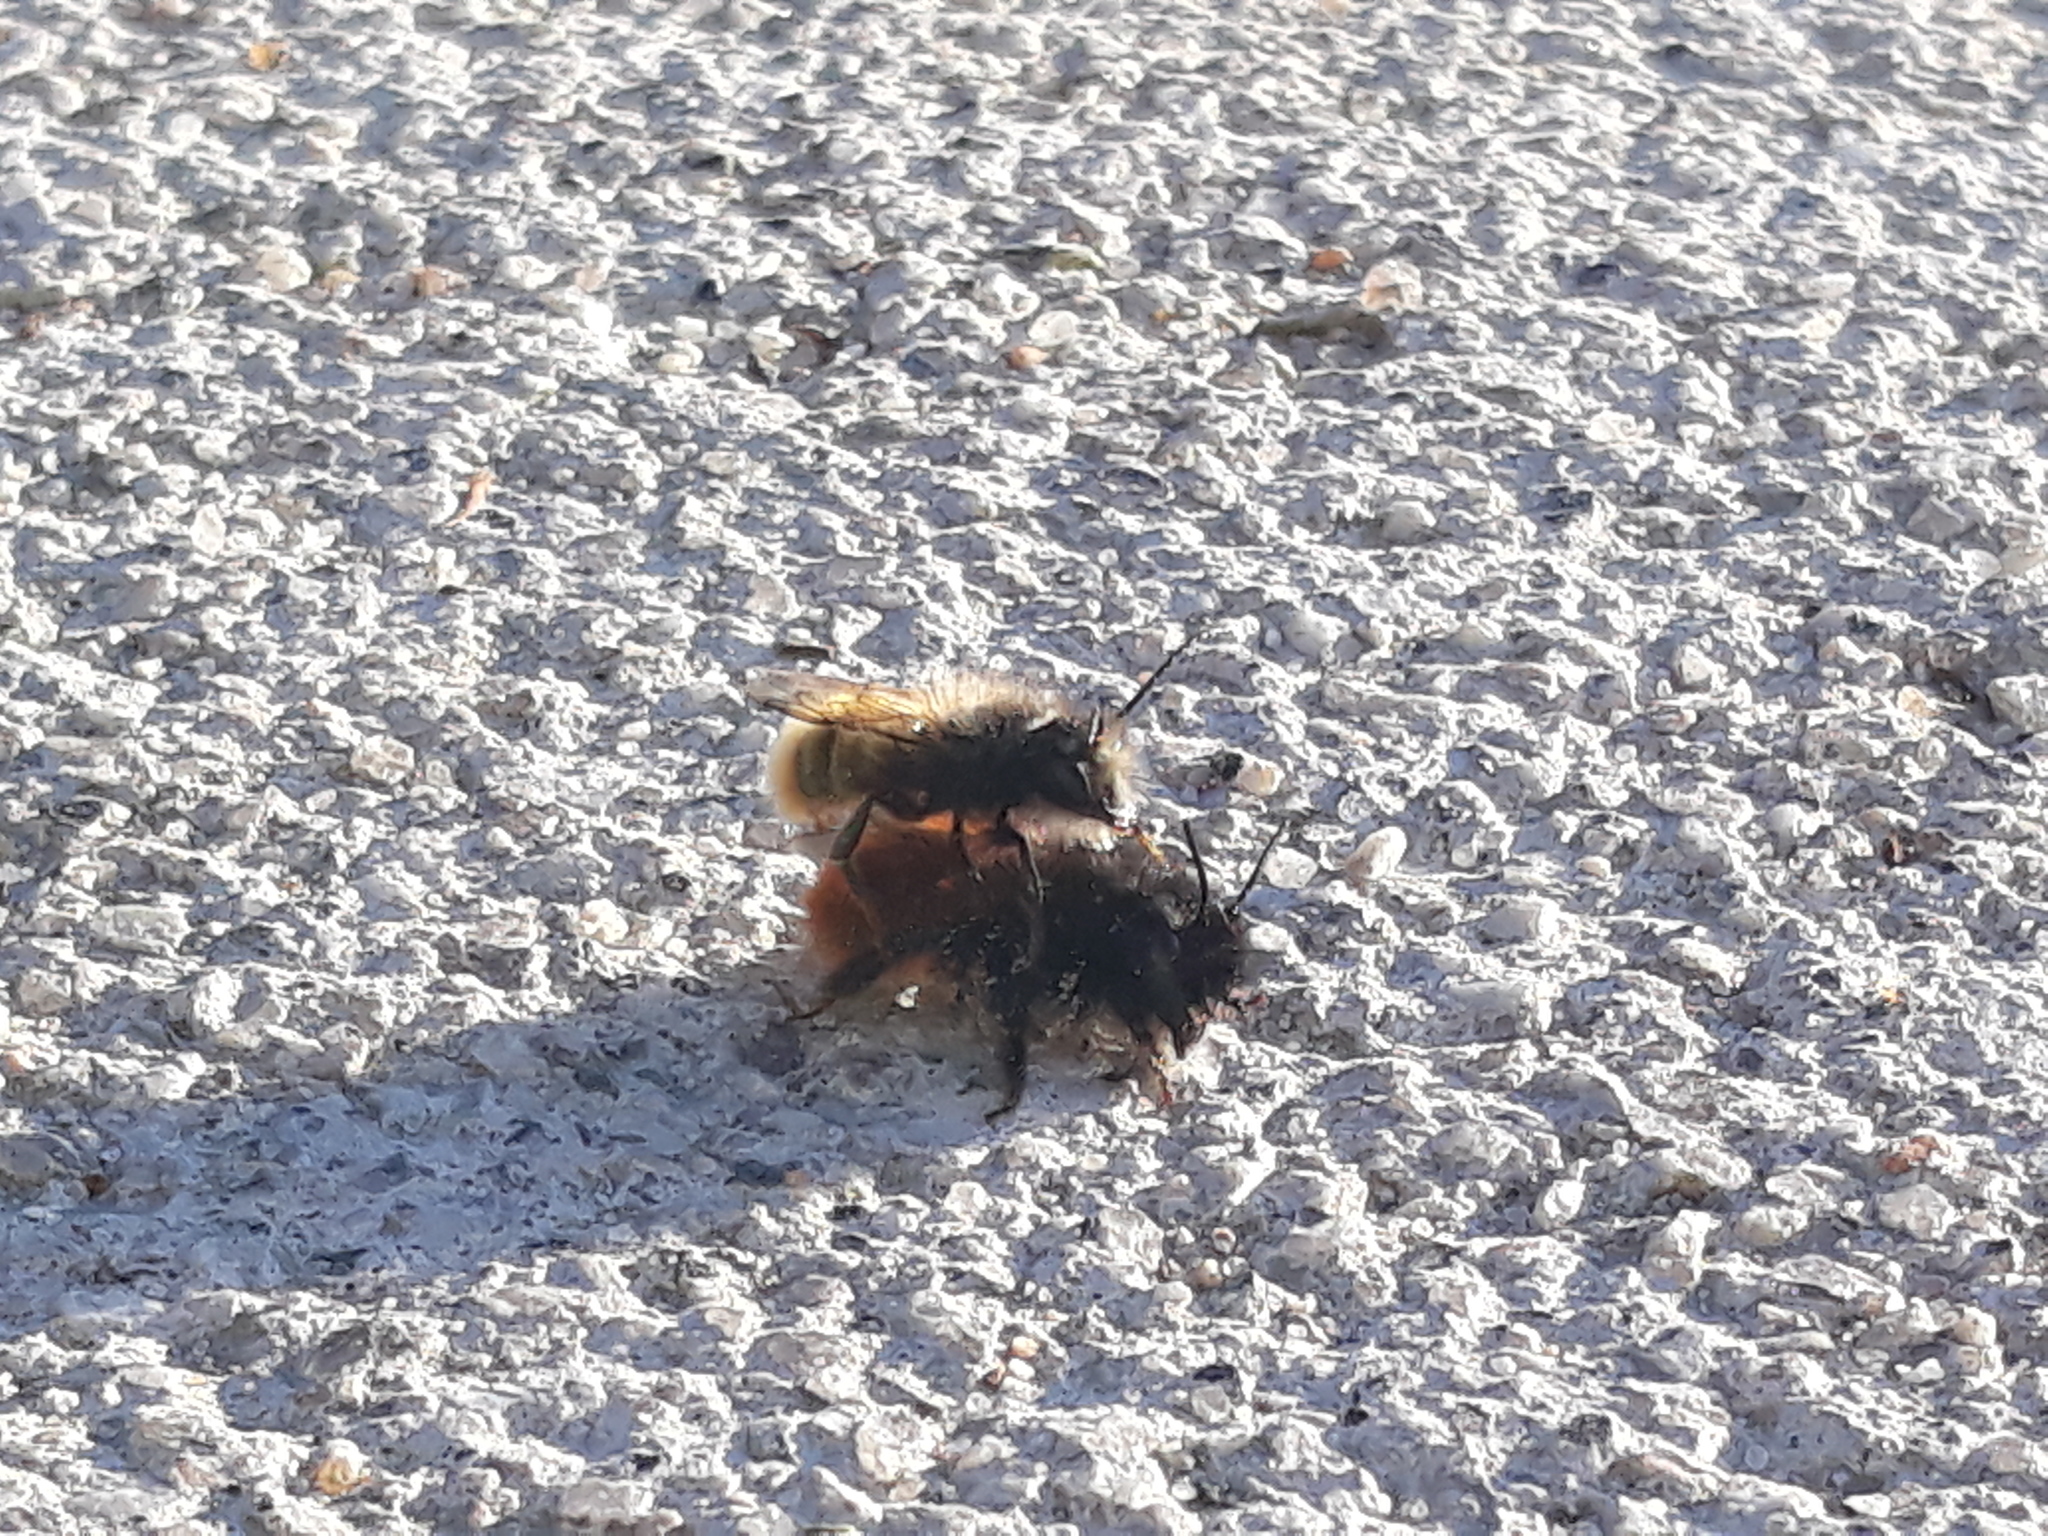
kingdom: Animalia
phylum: Arthropoda
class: Insecta
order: Hymenoptera
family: Megachilidae
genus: Osmia
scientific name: Osmia
